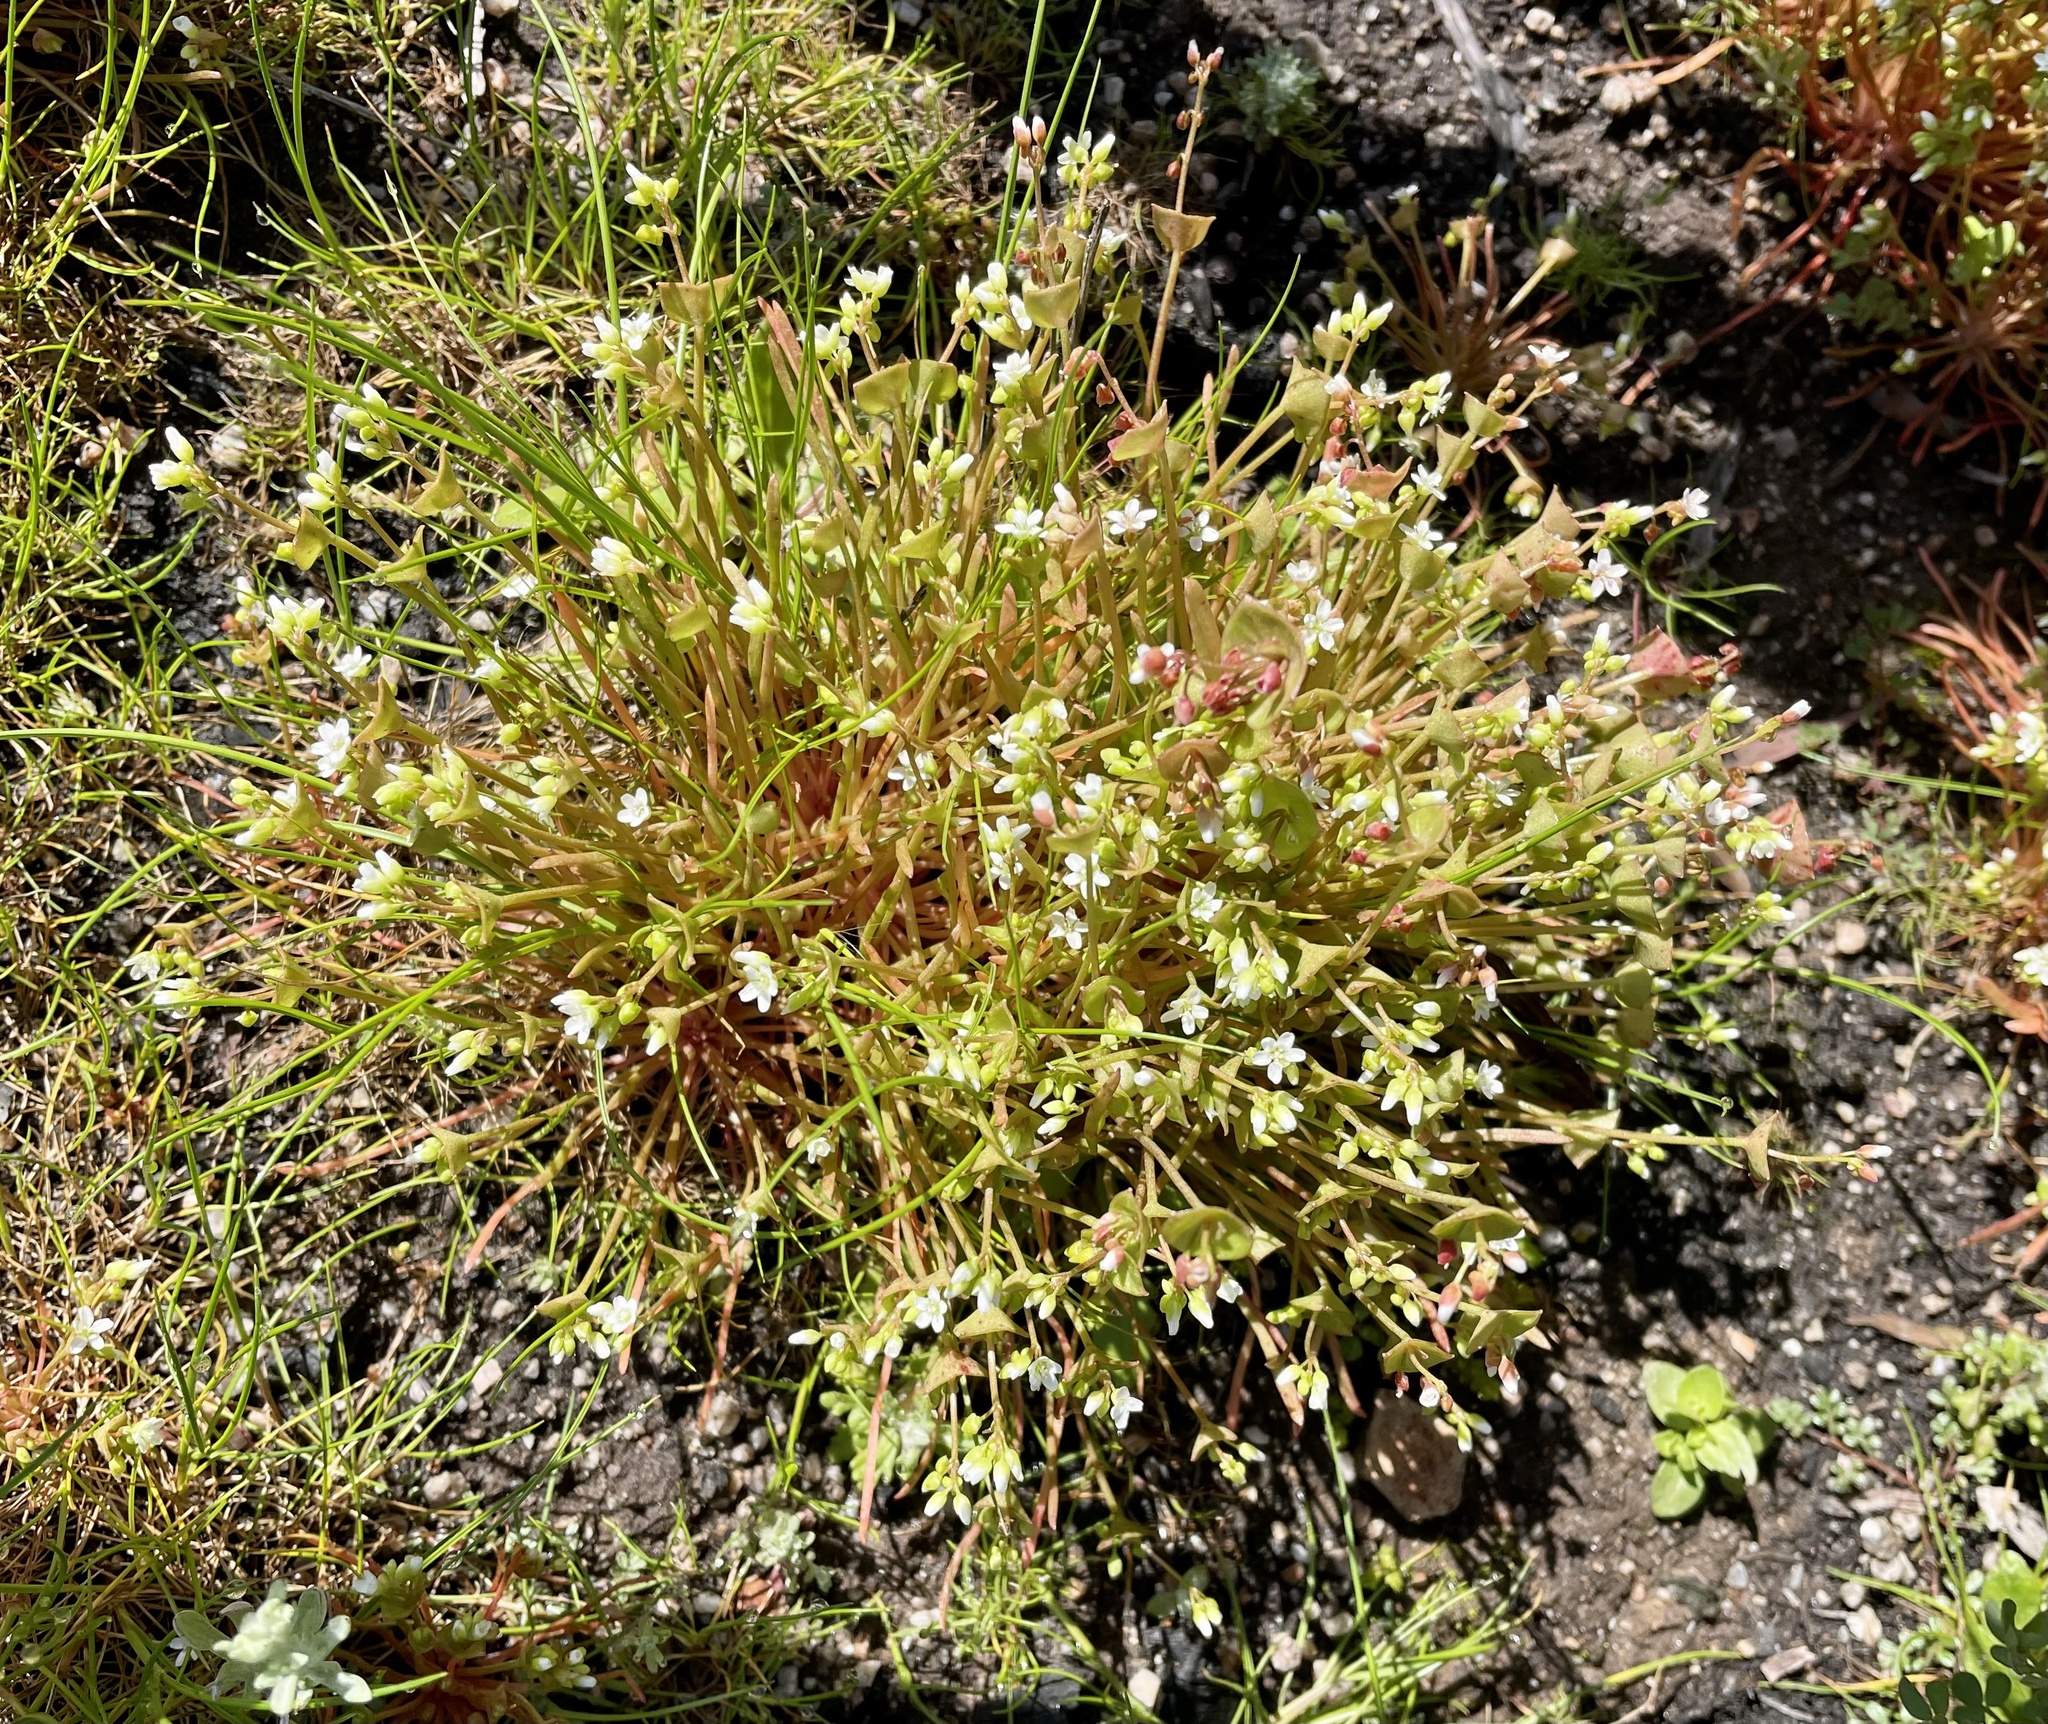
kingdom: Plantae
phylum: Tracheophyta
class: Magnoliopsida
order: Caryophyllales
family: Montiaceae
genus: Claytonia
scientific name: Claytonia parviflora
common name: Indian-lettuce
